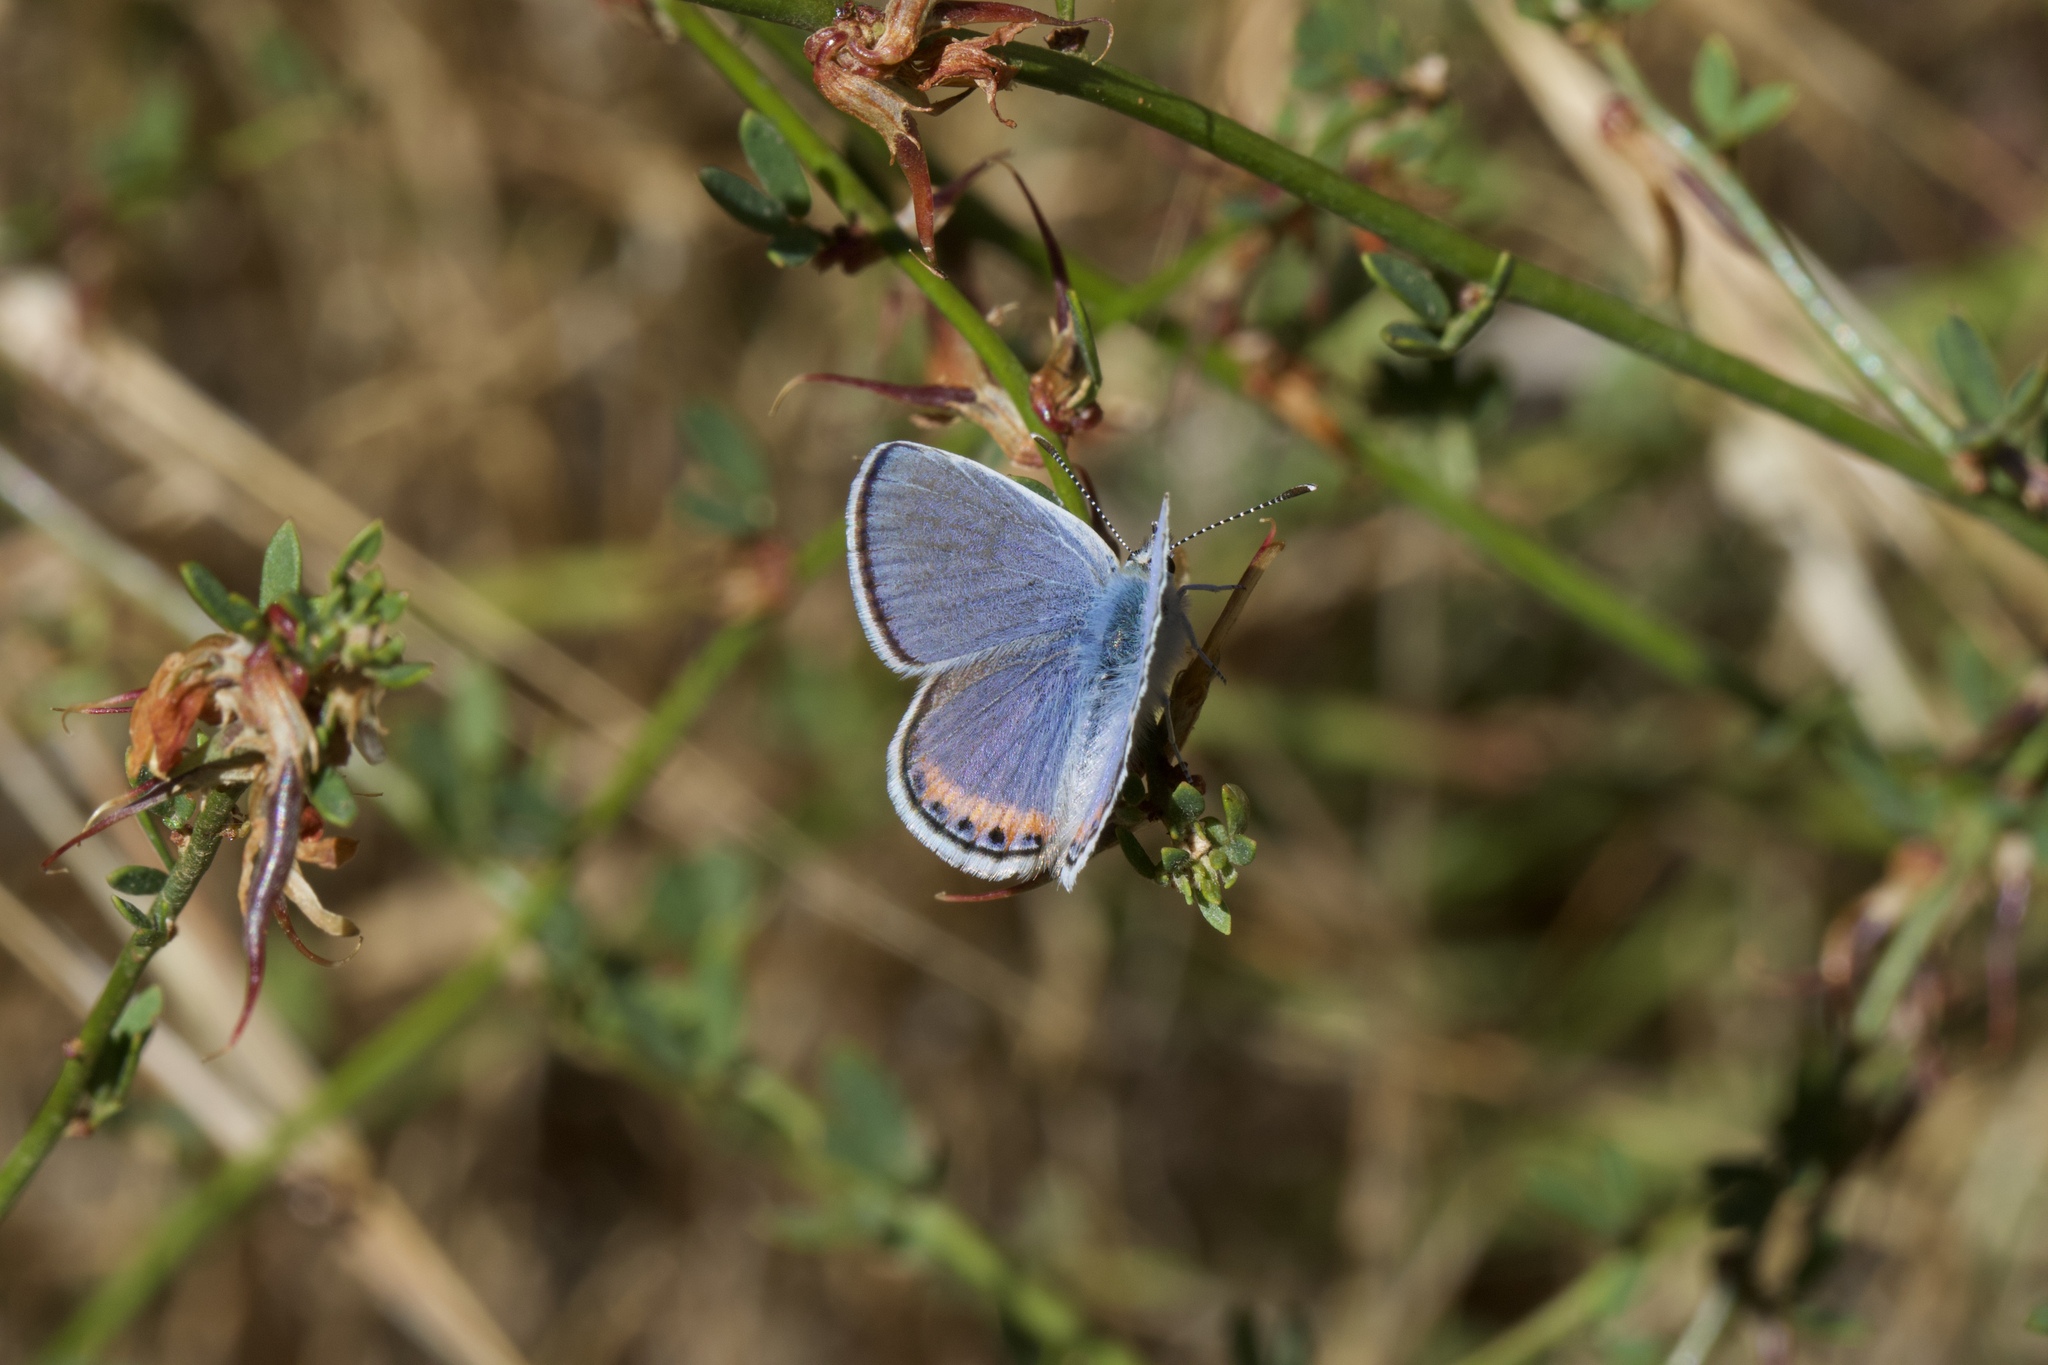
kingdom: Animalia
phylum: Arthropoda
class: Insecta
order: Lepidoptera
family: Lycaenidae
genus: Icaricia
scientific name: Icaricia acmon
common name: Acmon blue
